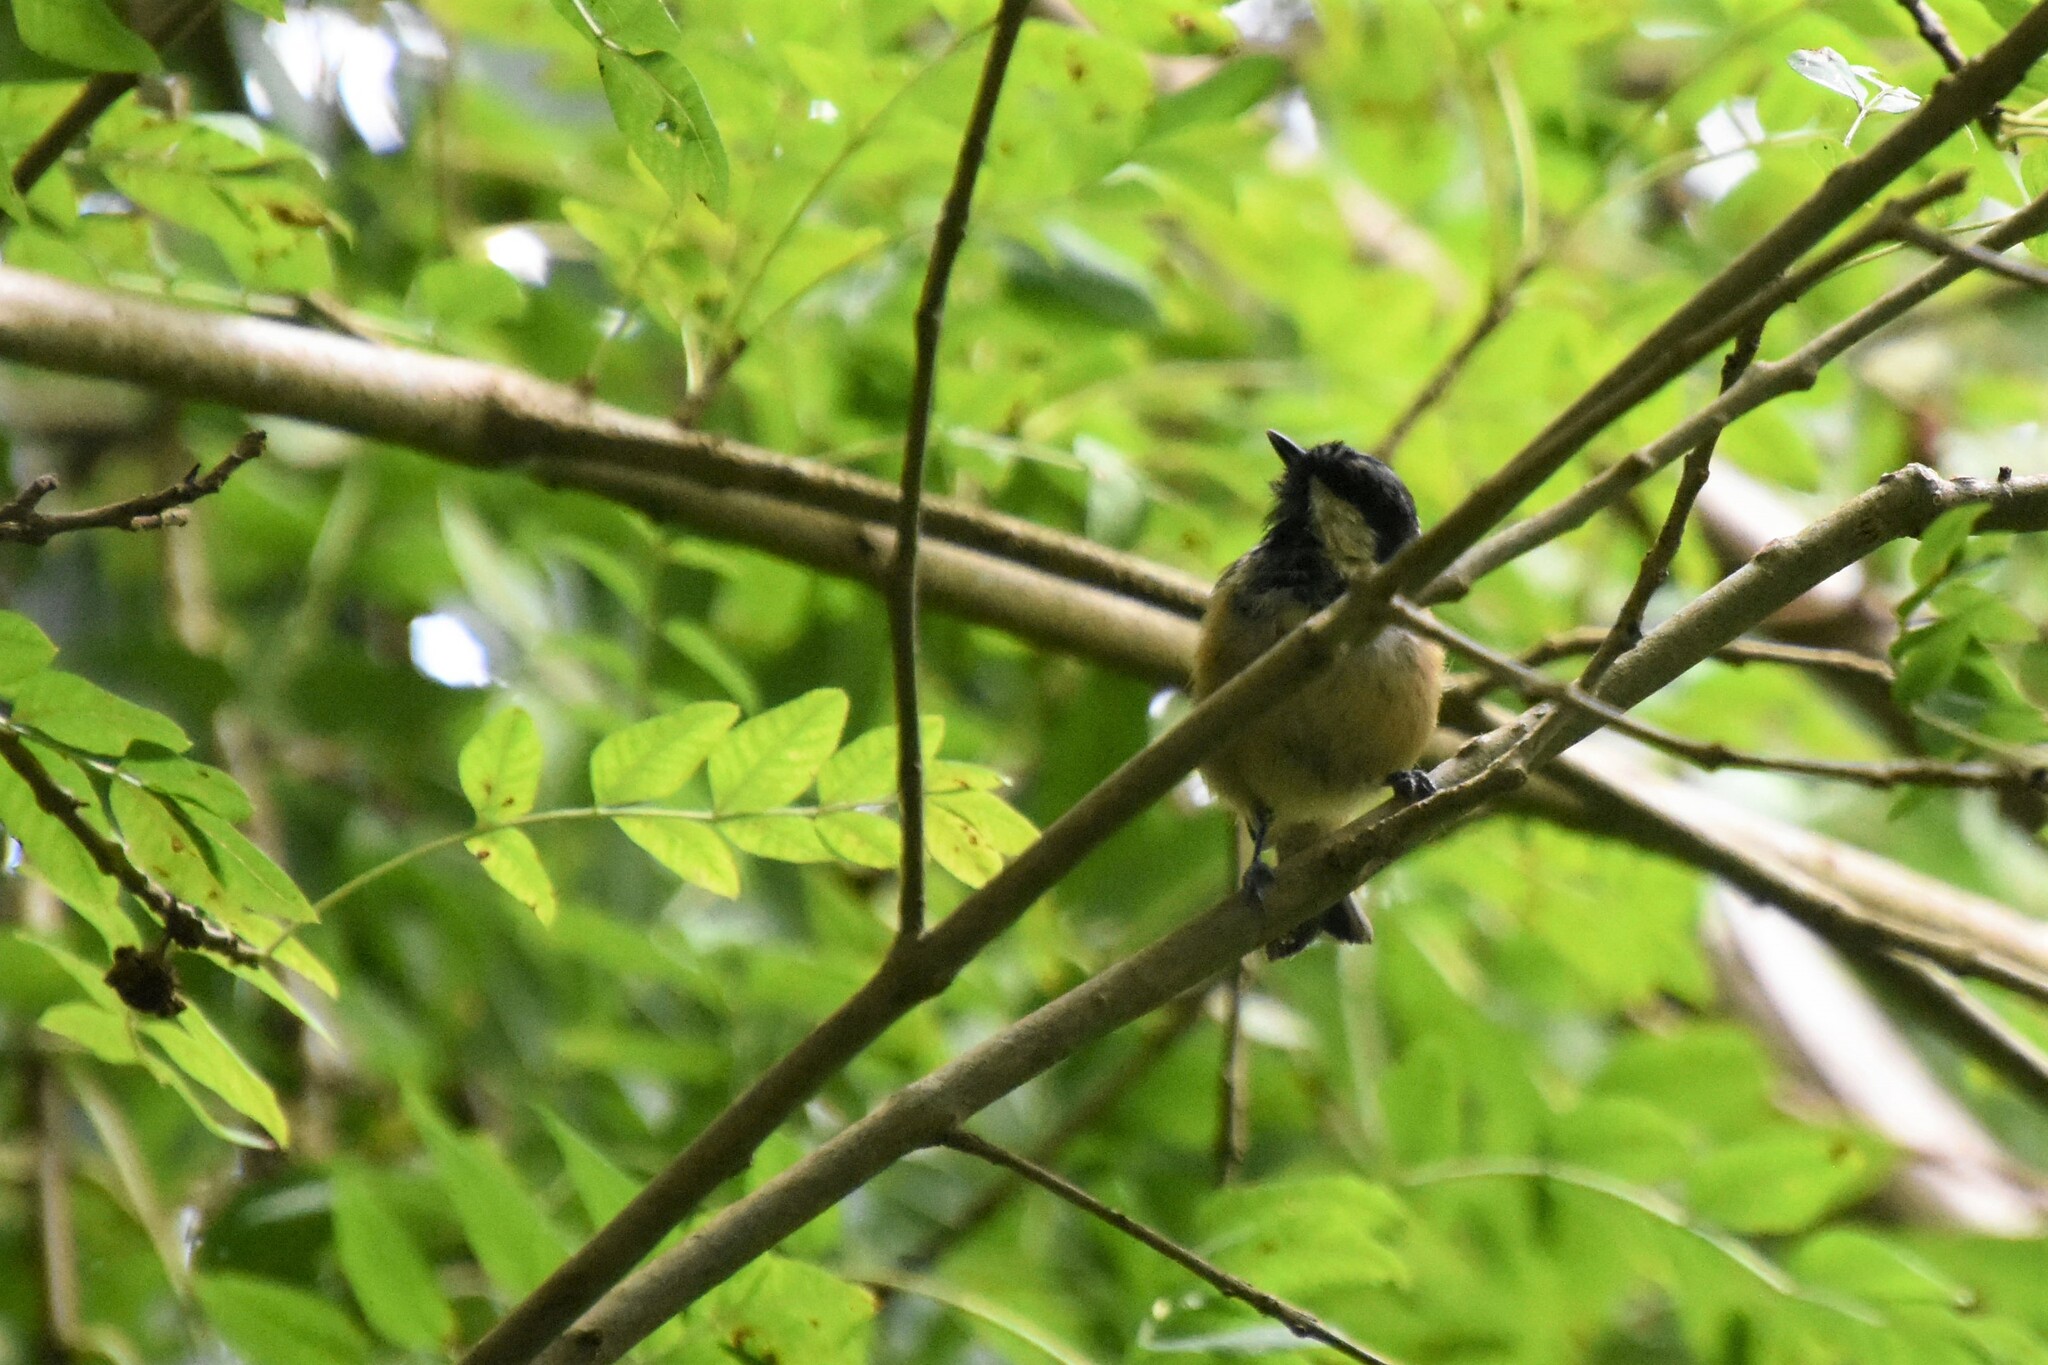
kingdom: Animalia
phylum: Chordata
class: Aves
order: Passeriformes
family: Paridae
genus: Periparus
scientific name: Periparus ater
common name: Coal tit
